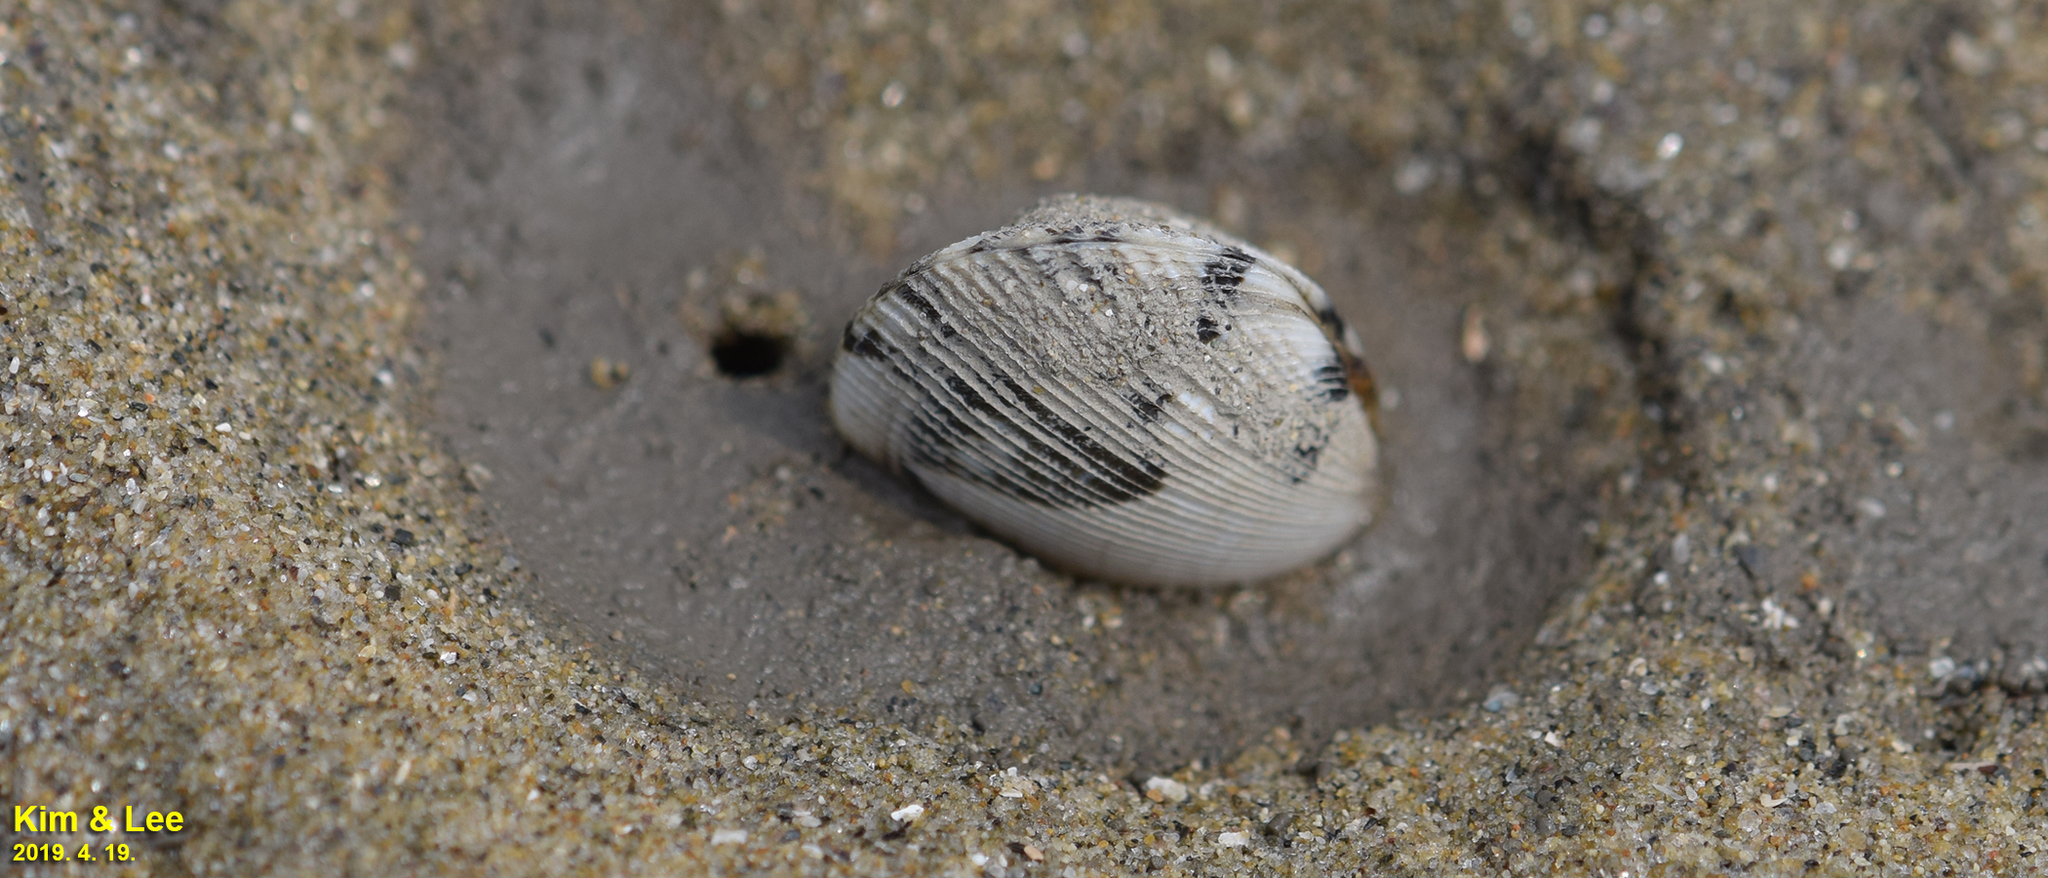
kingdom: Animalia
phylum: Mollusca
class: Bivalvia
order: Venerida
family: Veneridae
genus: Ruditapes
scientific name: Ruditapes philippinarum
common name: Manila clam
